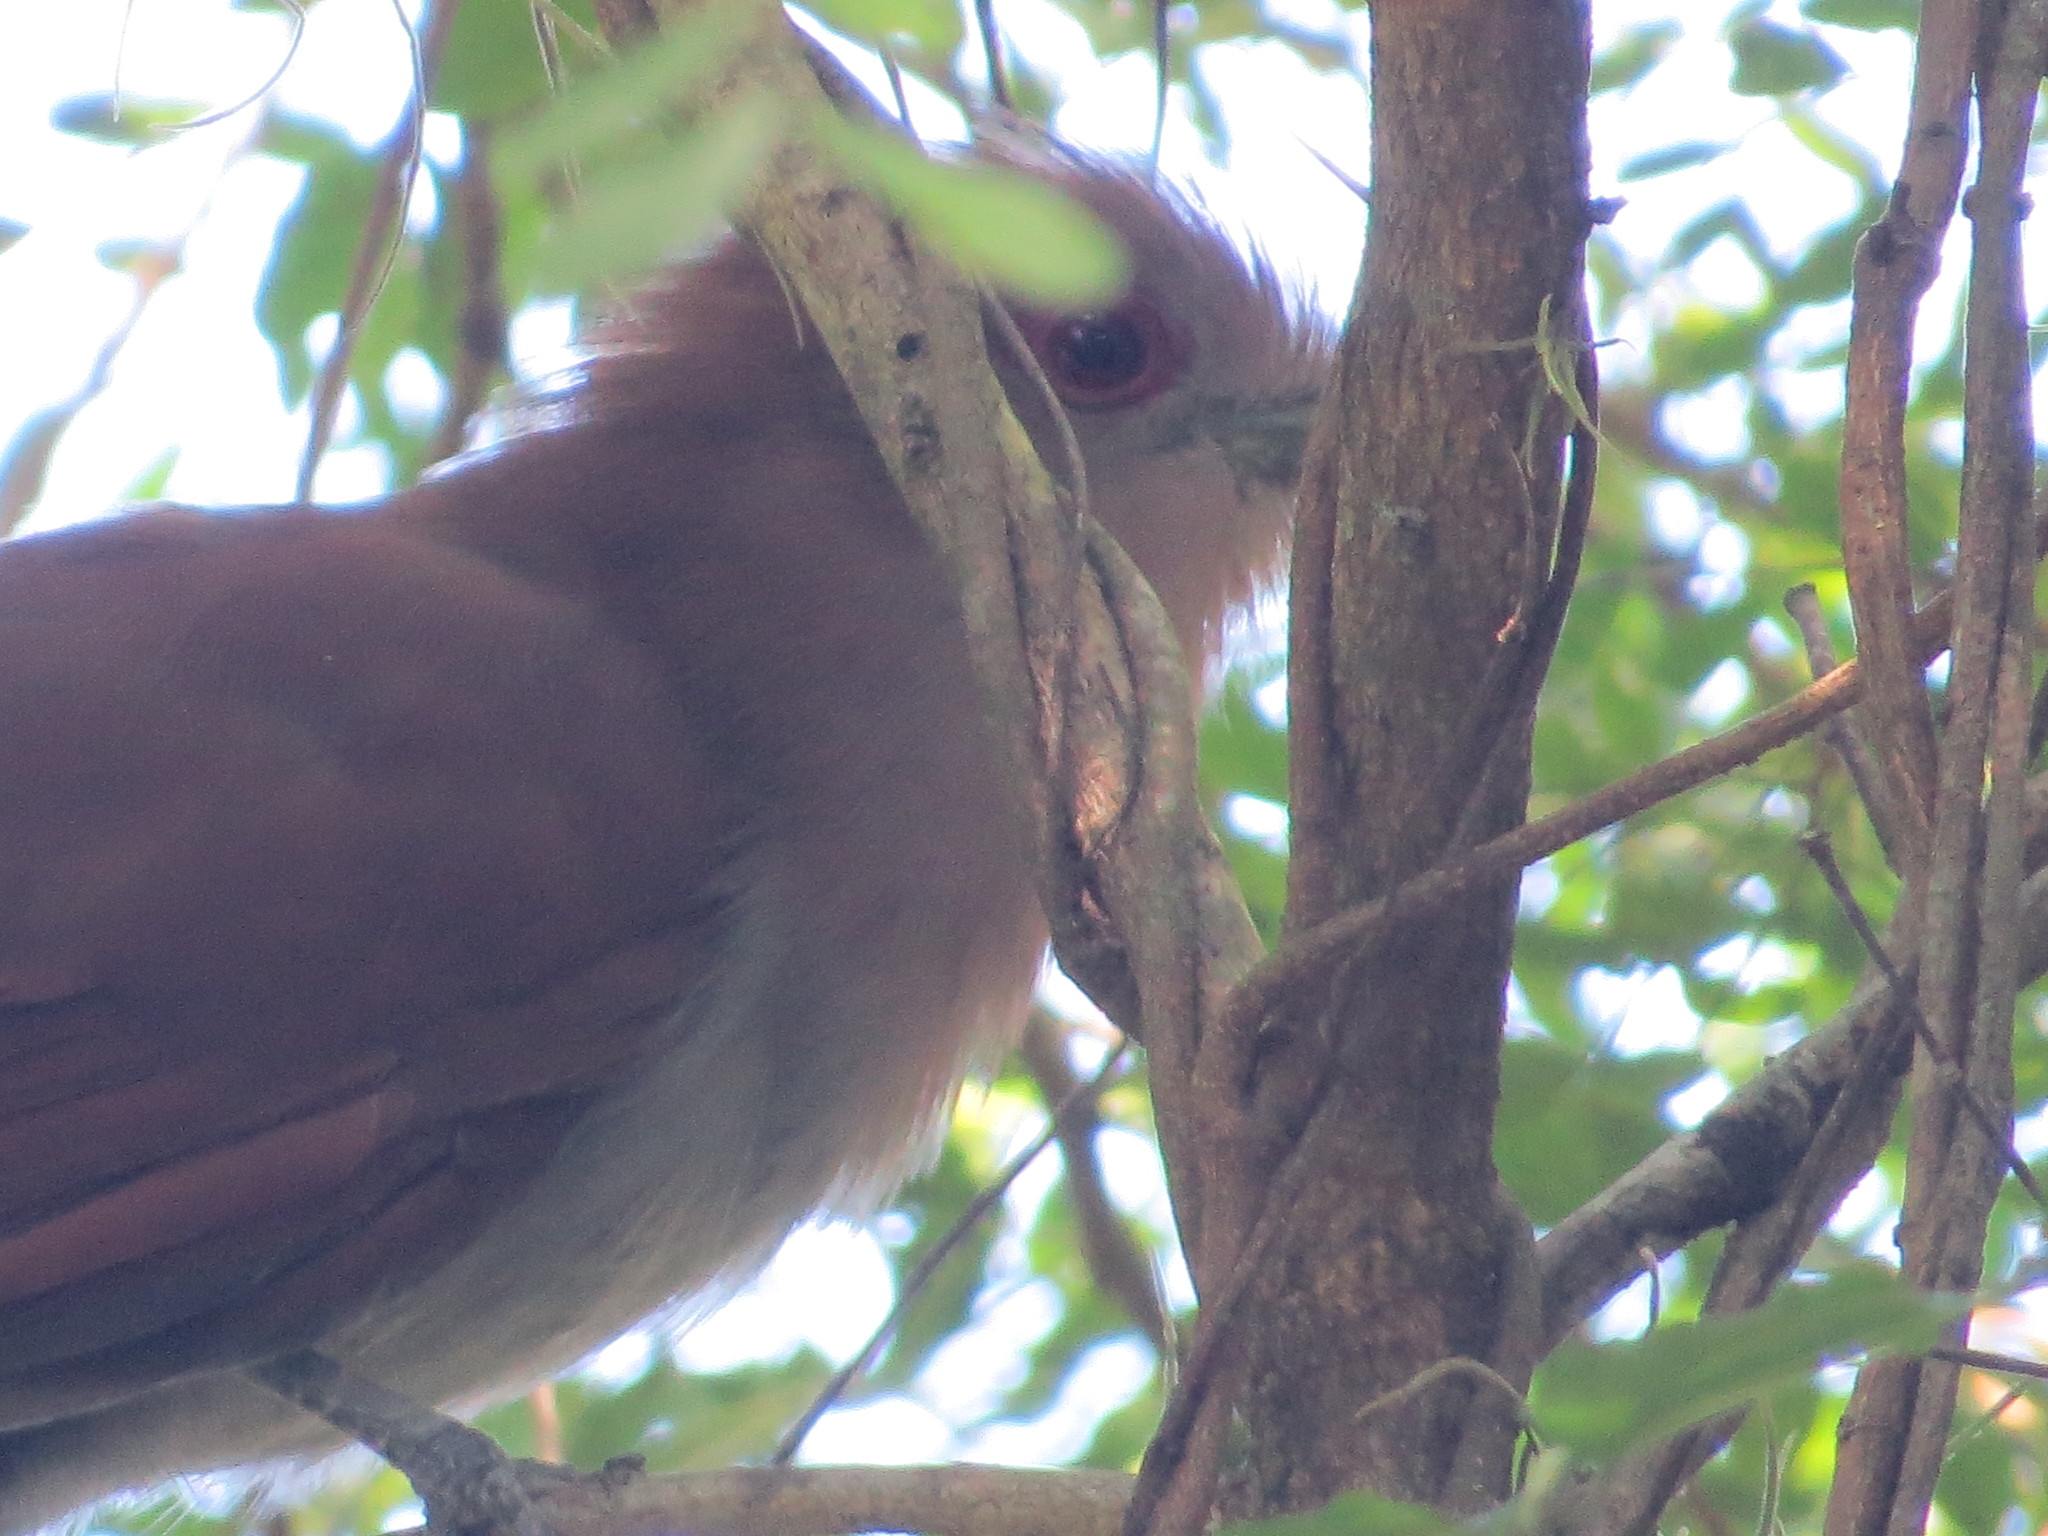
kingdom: Animalia
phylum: Chordata
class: Aves
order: Cuculiformes
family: Cuculidae
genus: Piaya
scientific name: Piaya cayana
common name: Squirrel cuckoo
